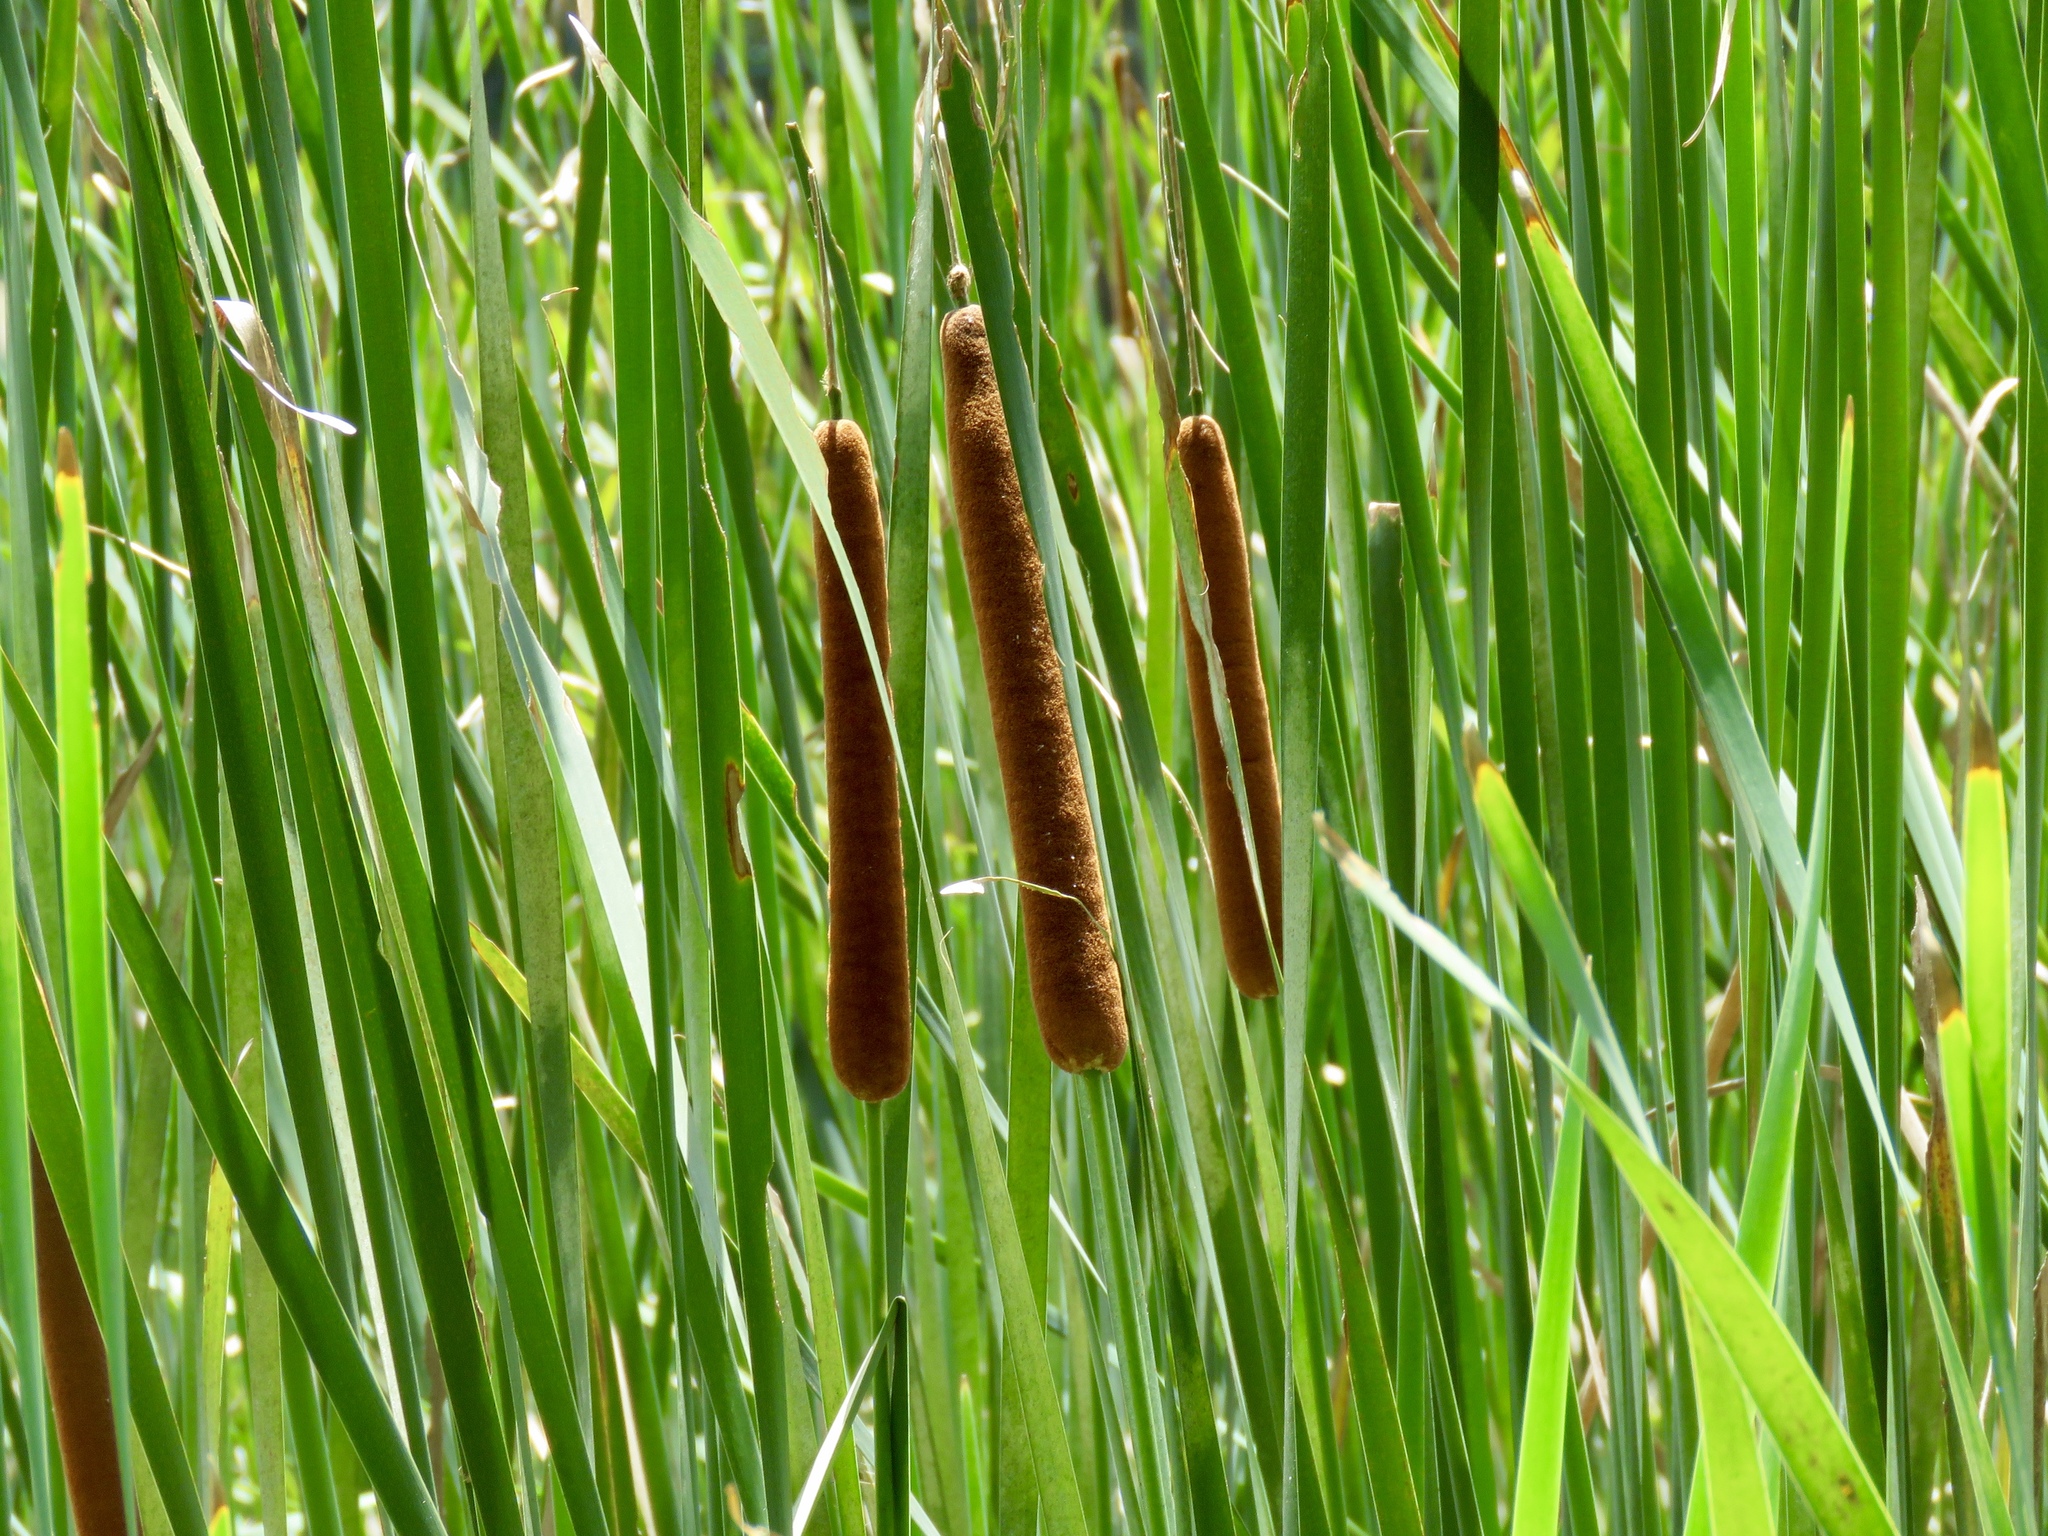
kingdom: Plantae
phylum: Tracheophyta
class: Liliopsida
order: Poales
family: Typhaceae
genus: Typha
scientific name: Typha latifolia
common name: Broadleaf cattail
